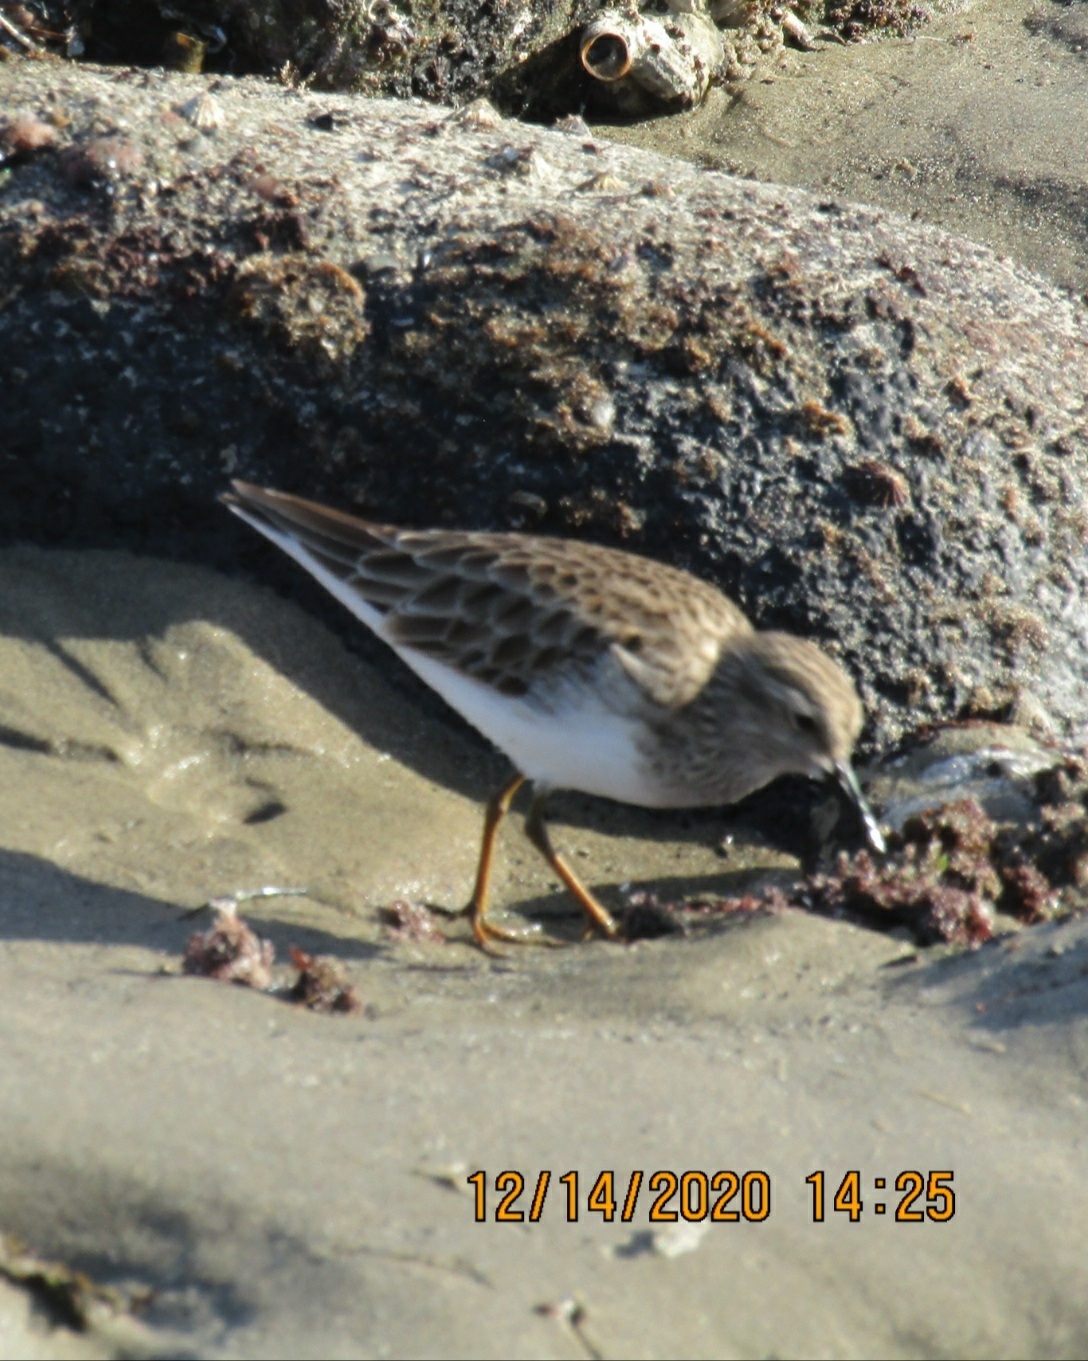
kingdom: Animalia
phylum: Chordata
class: Aves
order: Charadriiformes
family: Scolopacidae
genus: Calidris
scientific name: Calidris minutilla
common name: Least sandpiper
